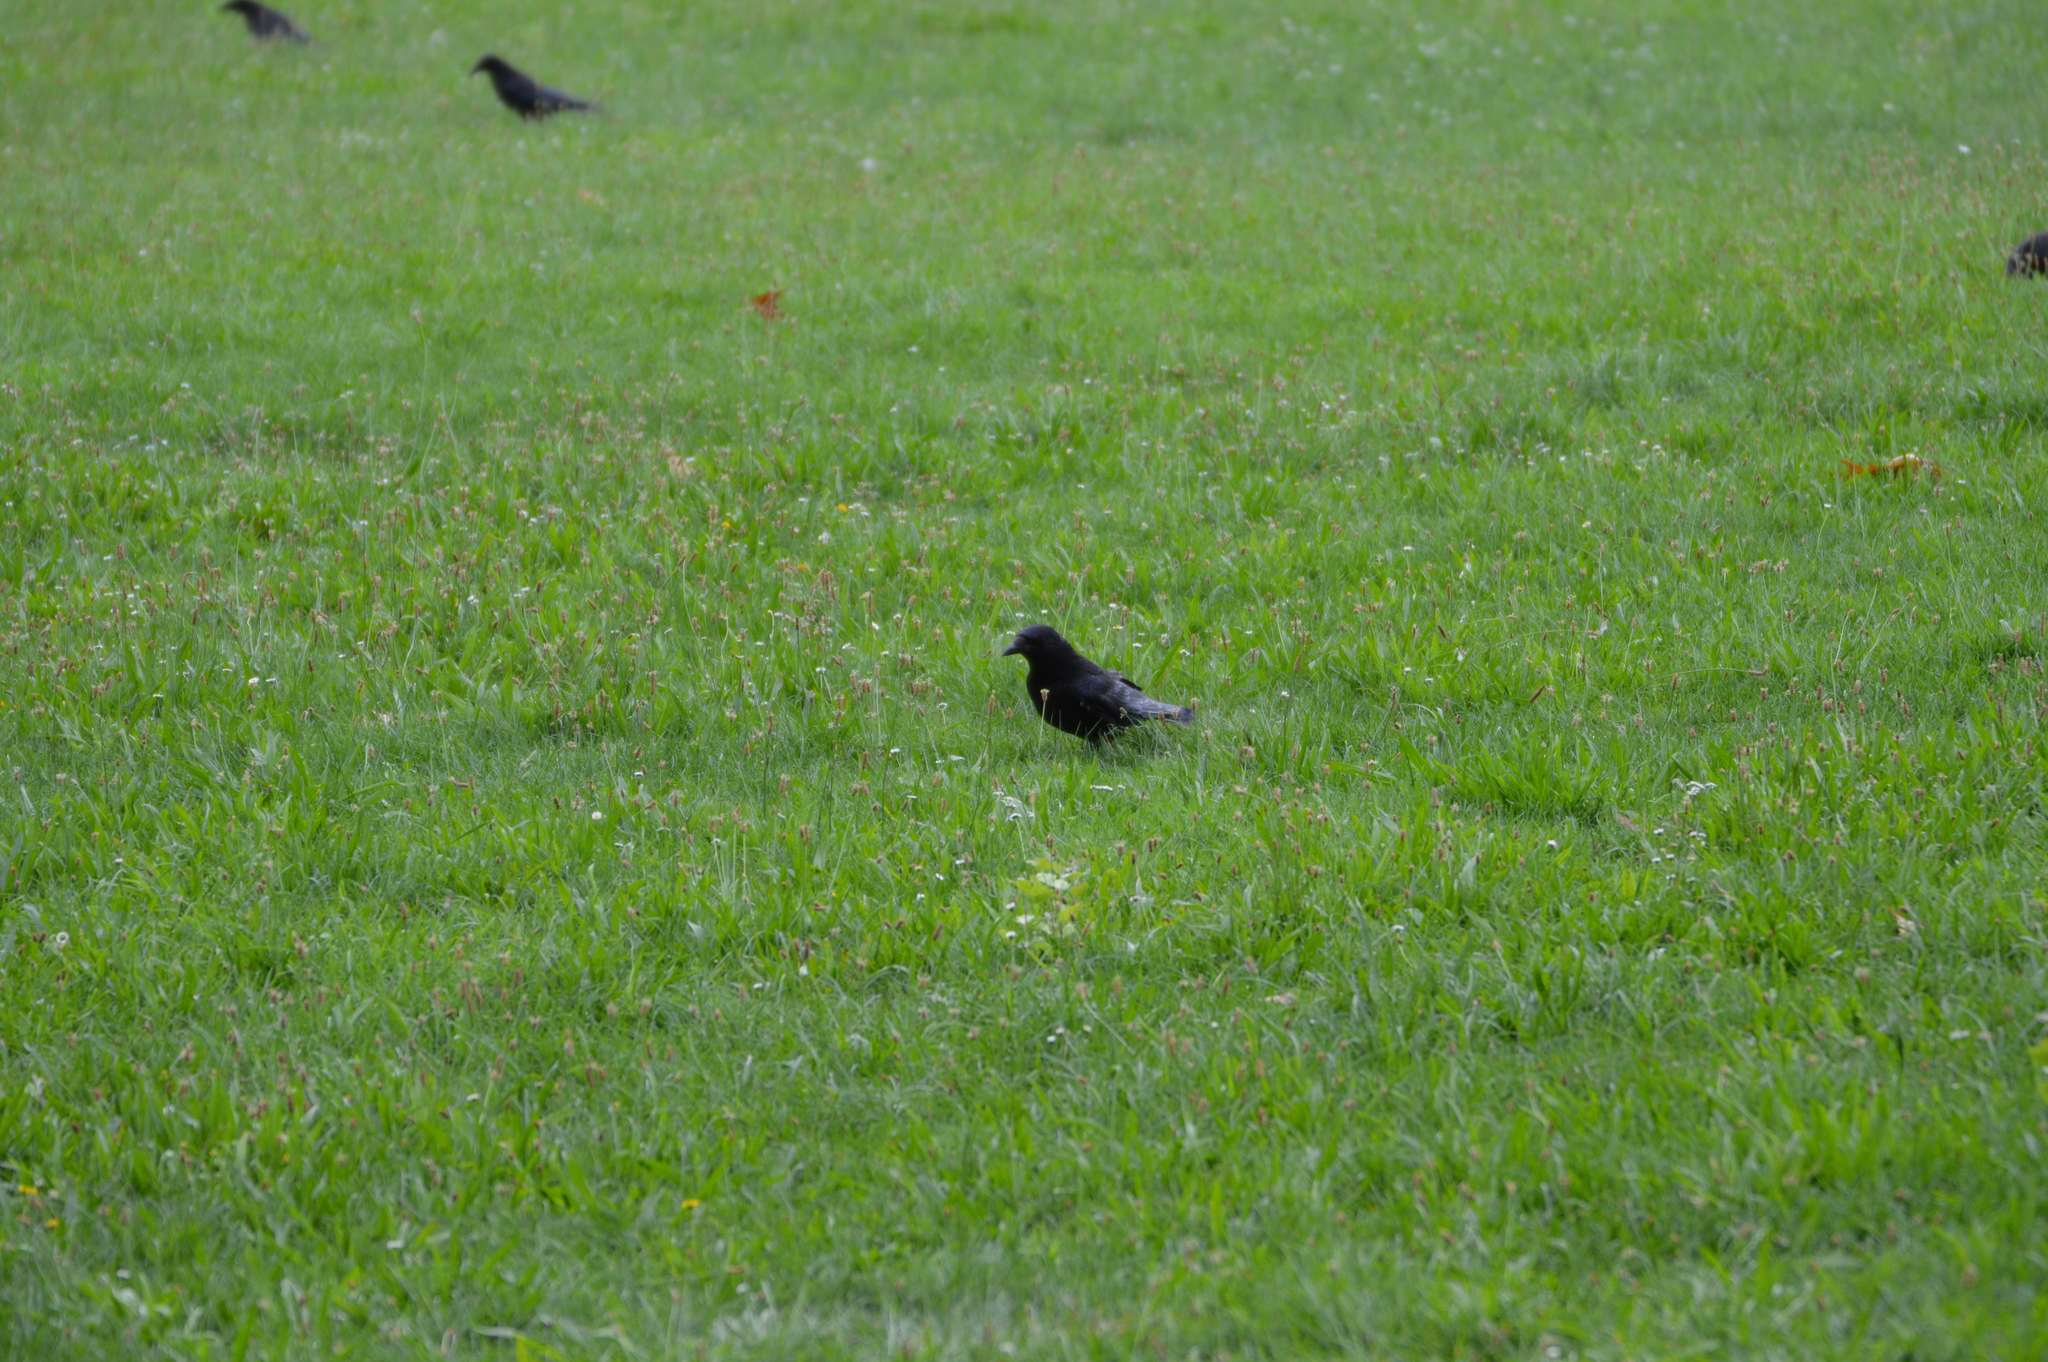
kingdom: Animalia
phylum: Chordata
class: Aves
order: Passeriformes
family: Corvidae
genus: Corvus
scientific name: Corvus corone
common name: Carrion crow
